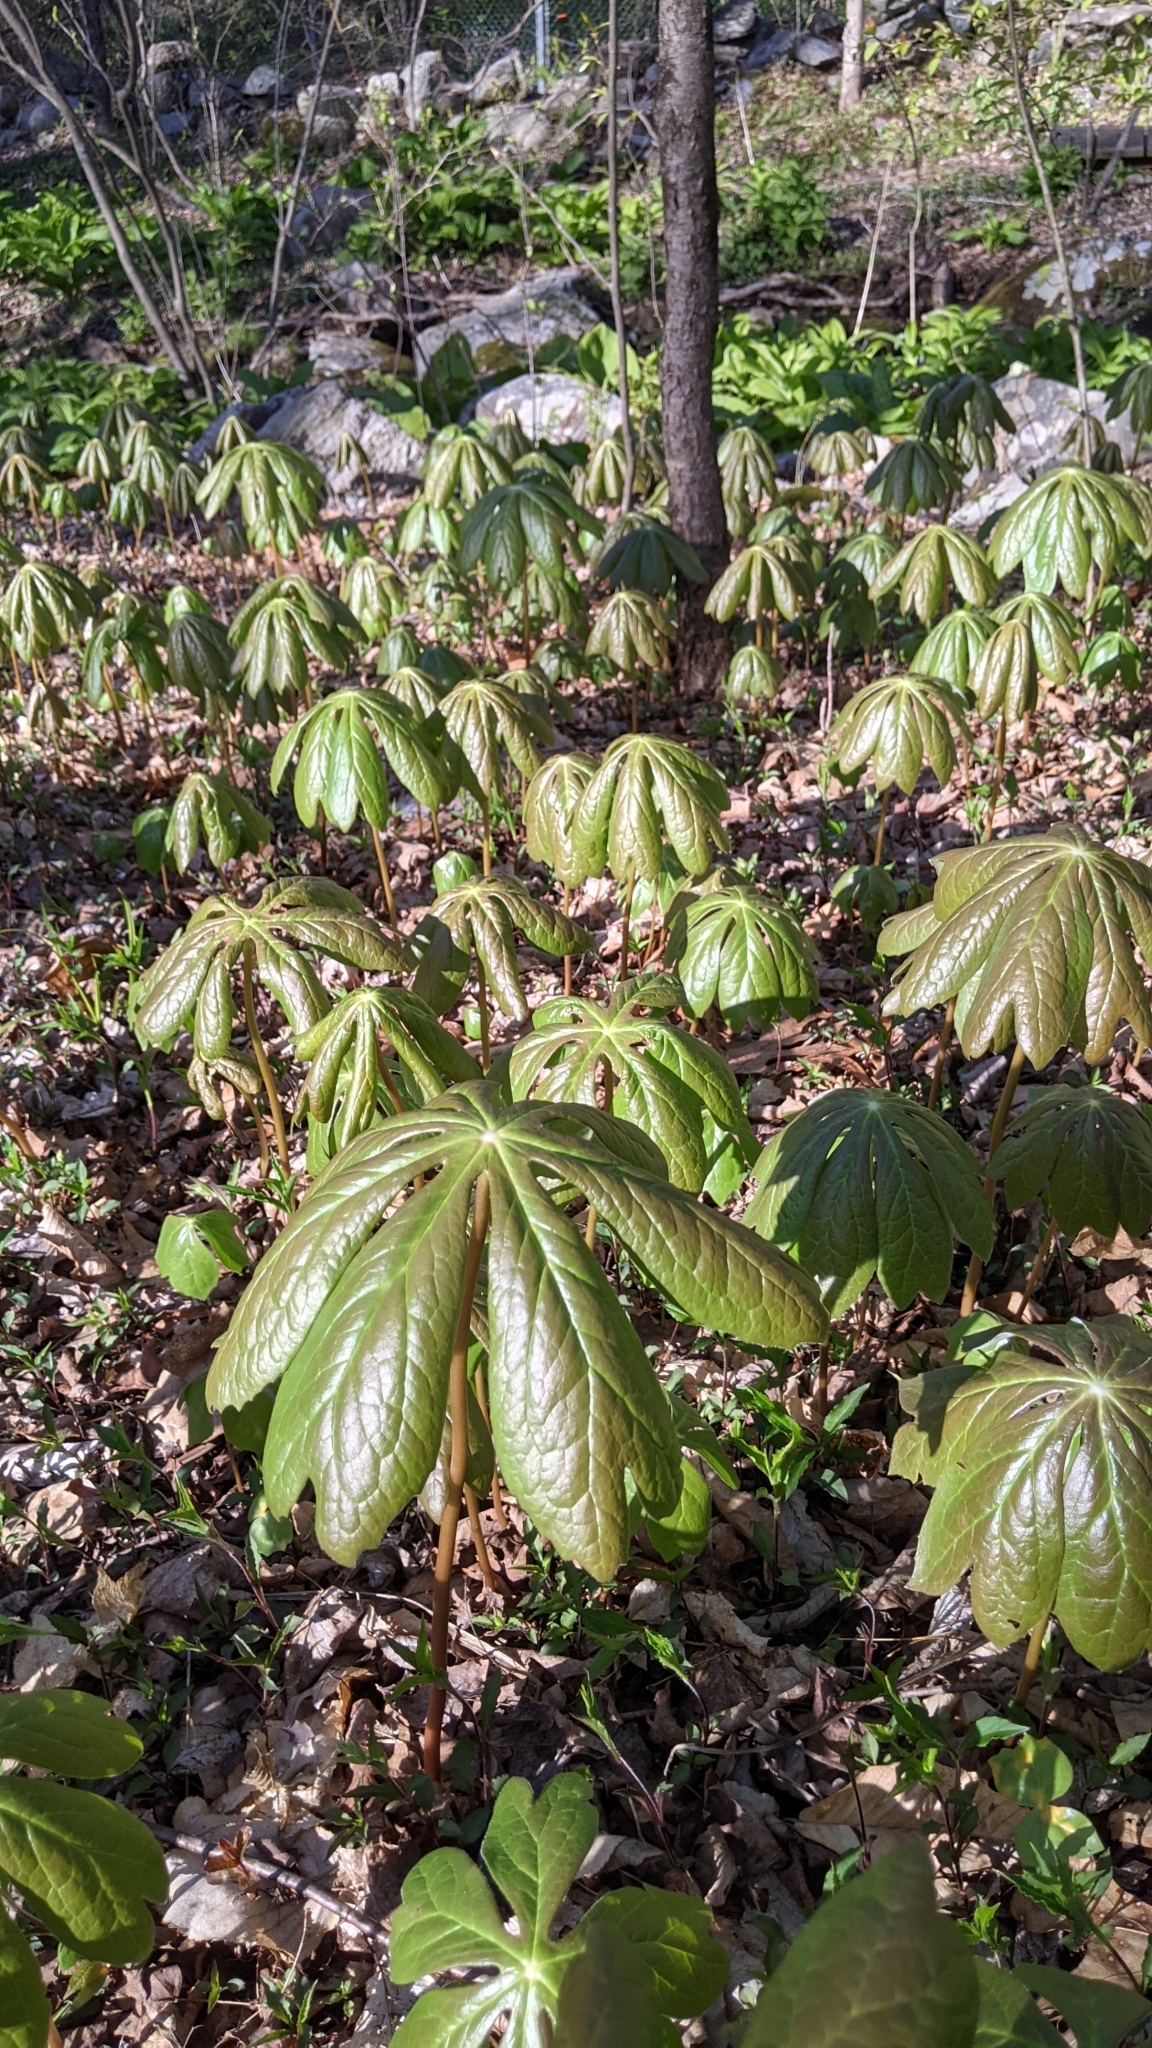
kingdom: Plantae
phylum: Tracheophyta
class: Magnoliopsida
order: Ranunculales
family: Berberidaceae
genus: Podophyllum
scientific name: Podophyllum peltatum
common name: Wild mandrake
